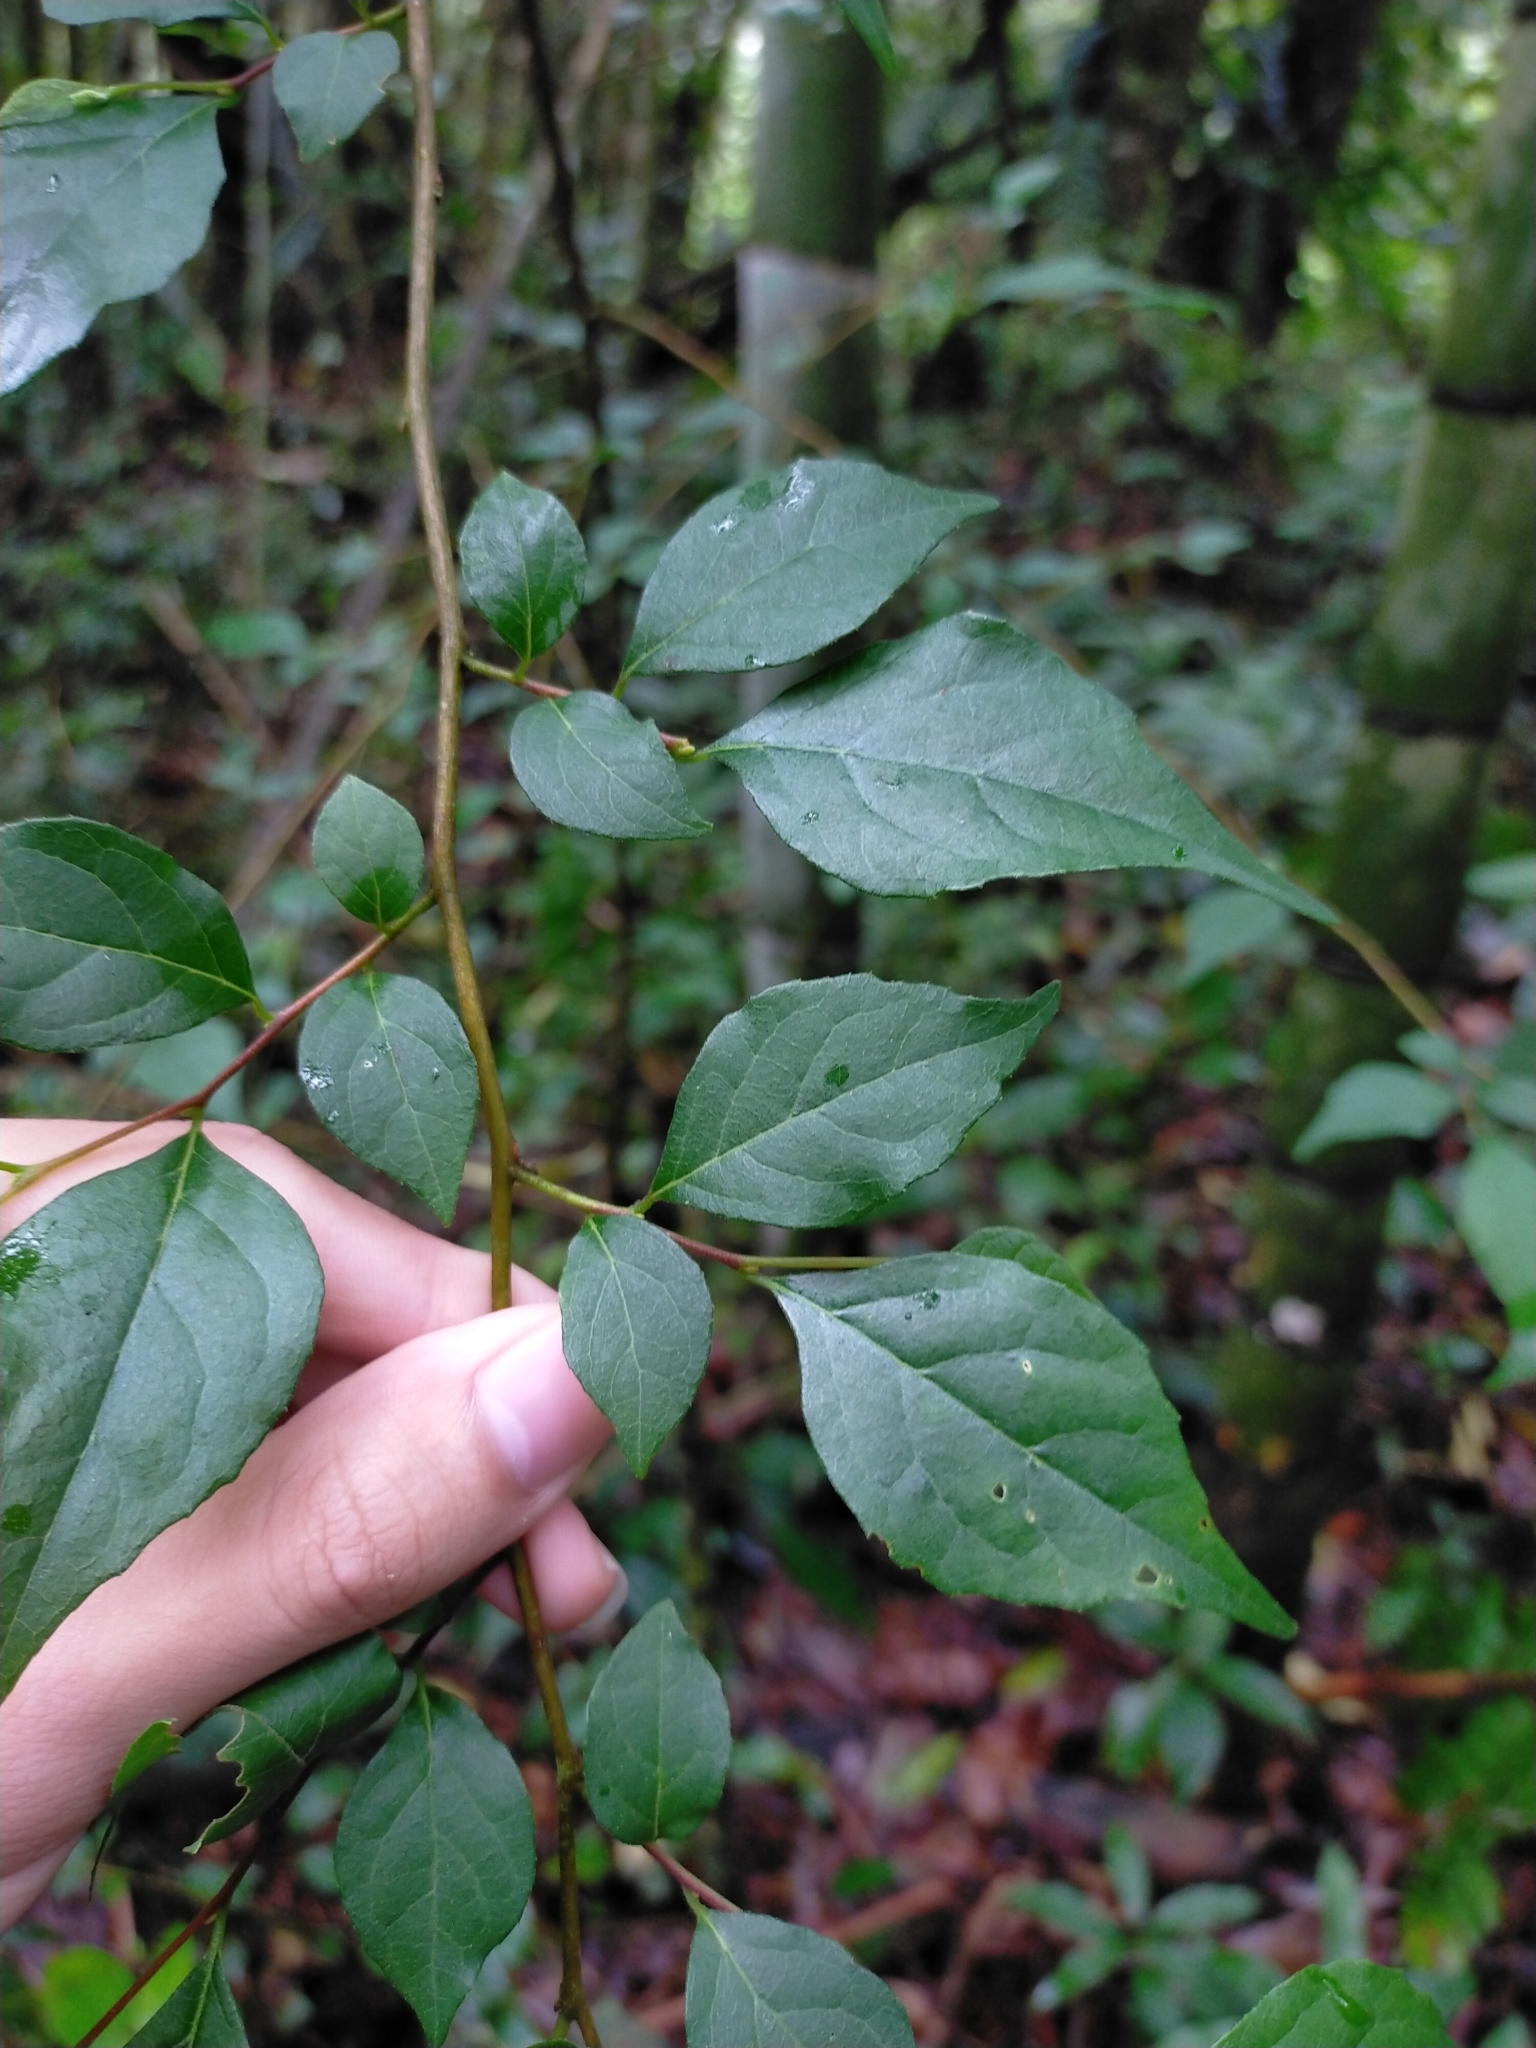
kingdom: Plantae
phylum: Tracheophyta
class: Magnoliopsida
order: Ericales
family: Styracaceae
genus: Styrax
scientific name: Styrax formosanus
